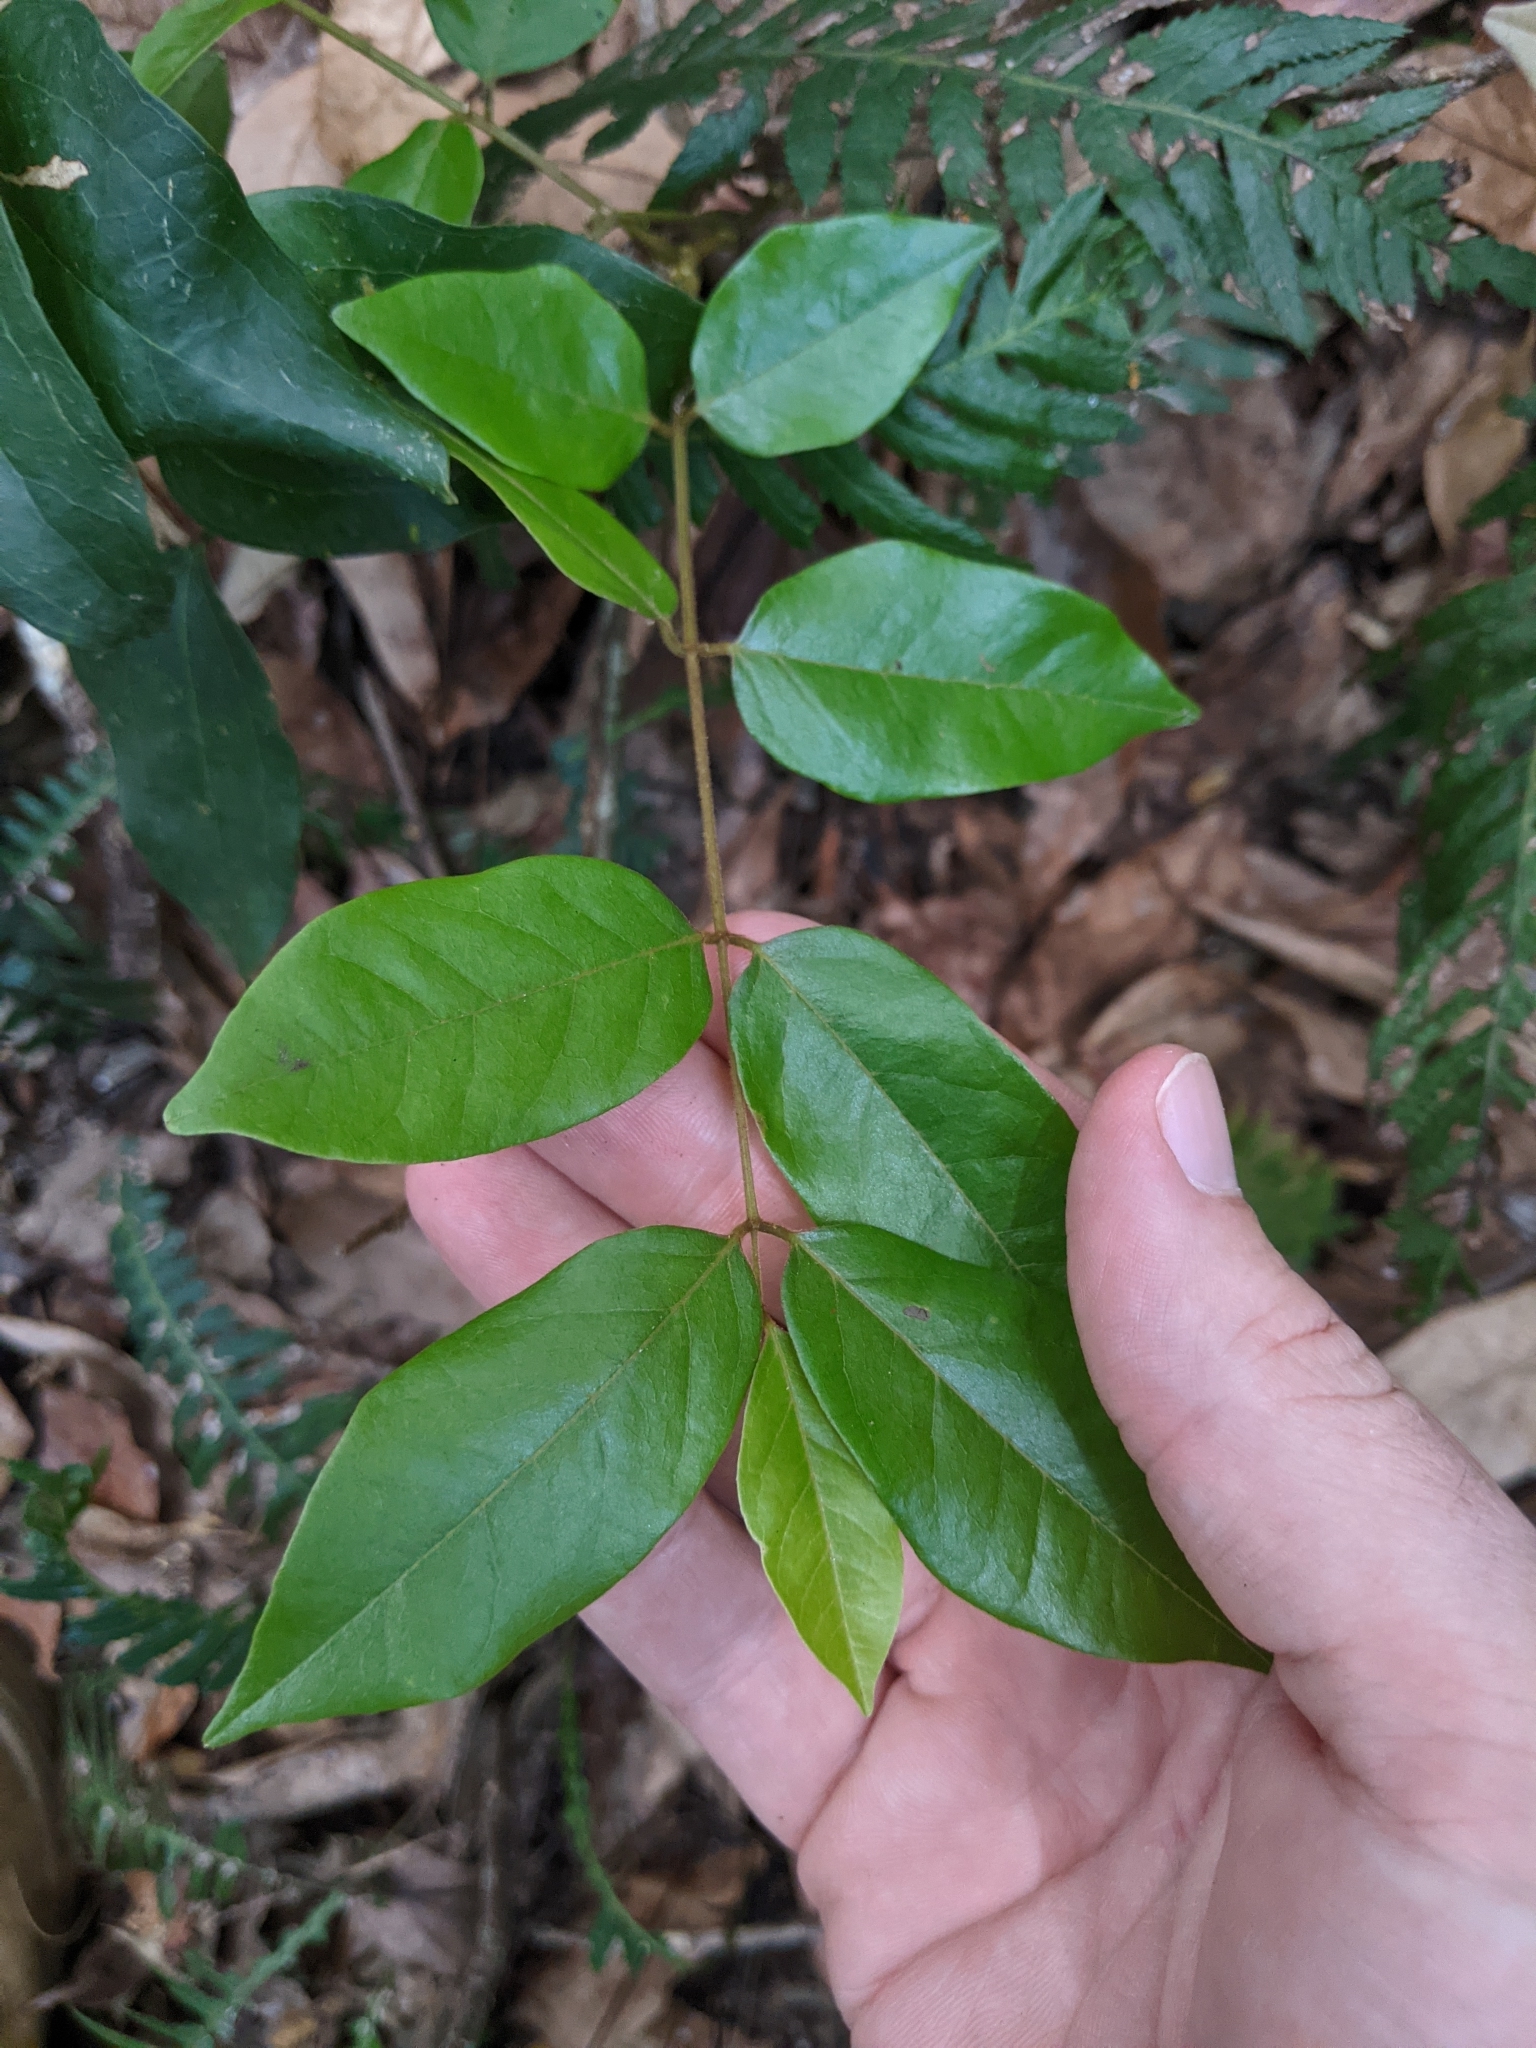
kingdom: Plantae
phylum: Tracheophyta
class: Magnoliopsida
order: Fabales
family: Fabaceae
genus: Austrosteenisia
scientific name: Austrosteenisia blackii
